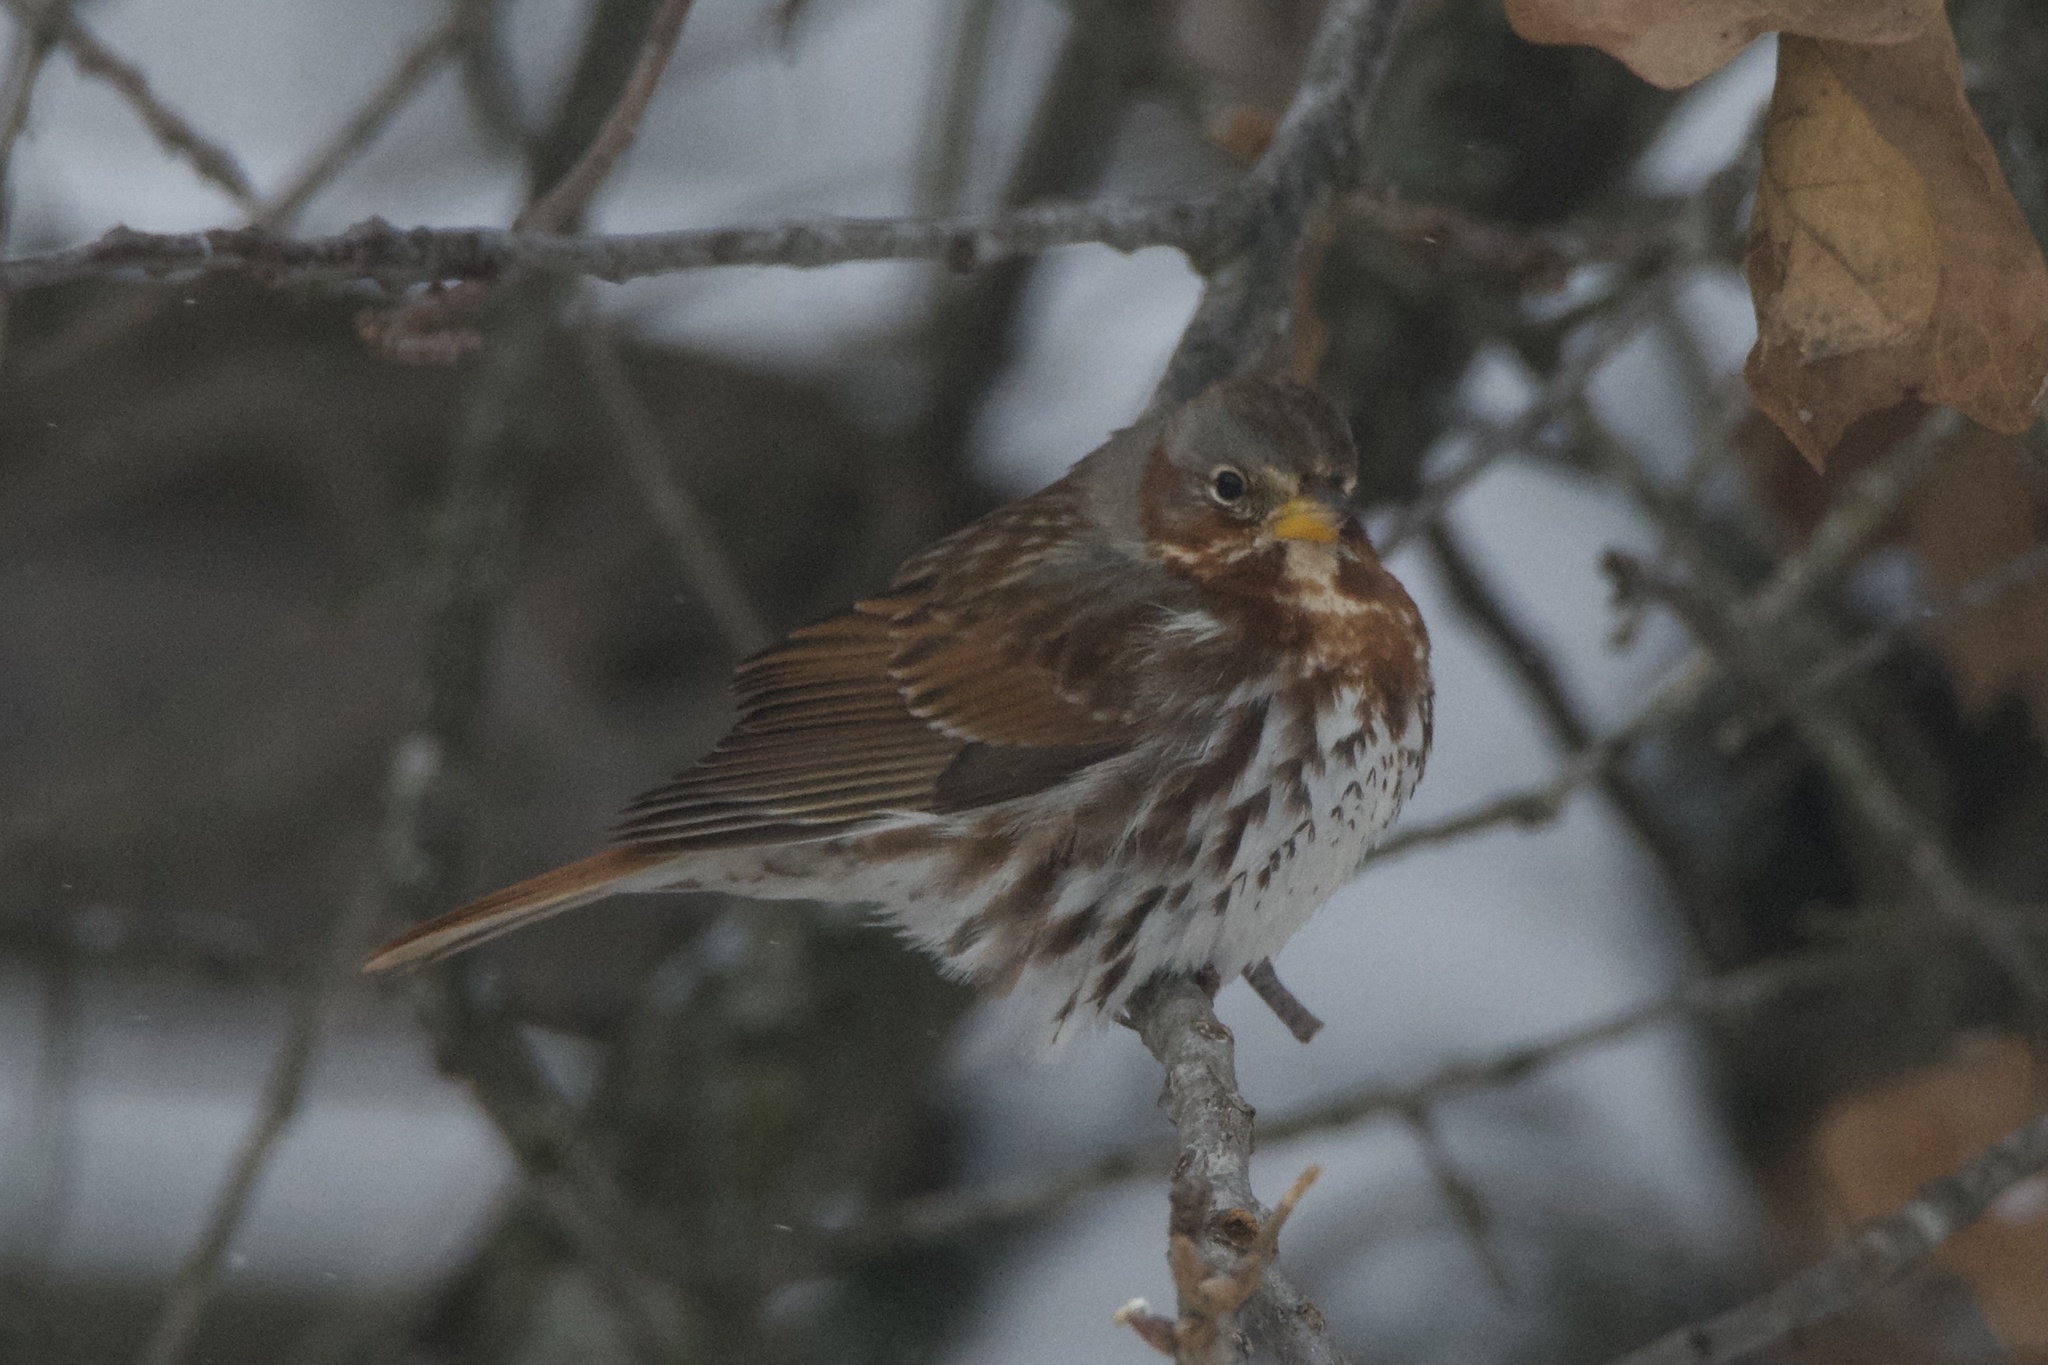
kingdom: Animalia
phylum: Chordata
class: Aves
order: Passeriformes
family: Passerellidae
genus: Passerella
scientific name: Passerella iliaca
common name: Fox sparrow
